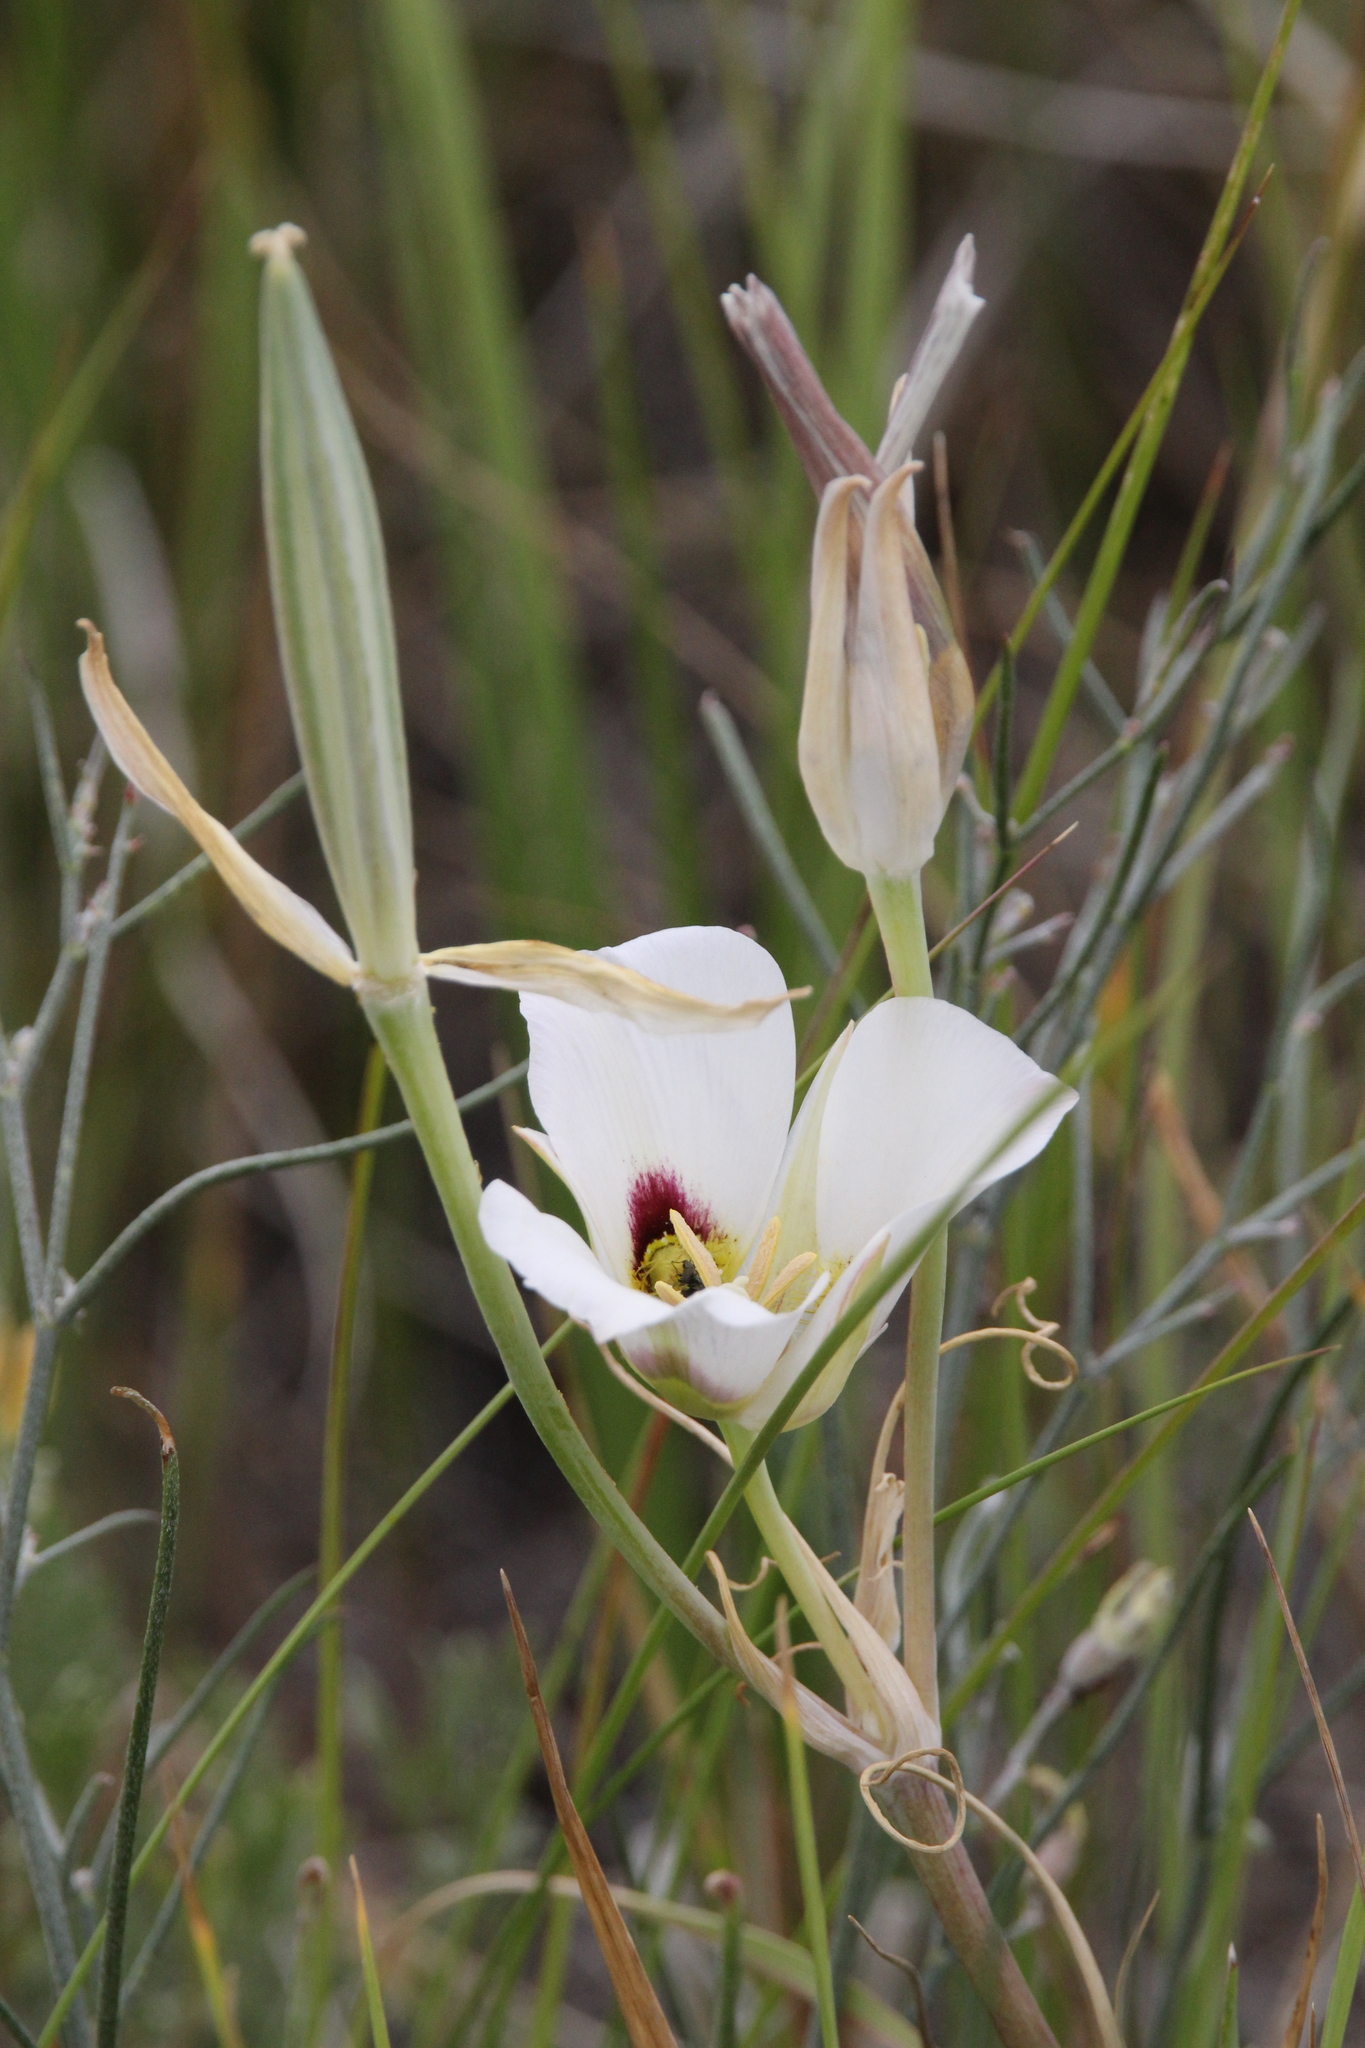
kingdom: Plantae
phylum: Tracheophyta
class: Liliopsida
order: Liliales
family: Liliaceae
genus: Calochortus
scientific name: Calochortus nuttallii
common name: Sego-lily
